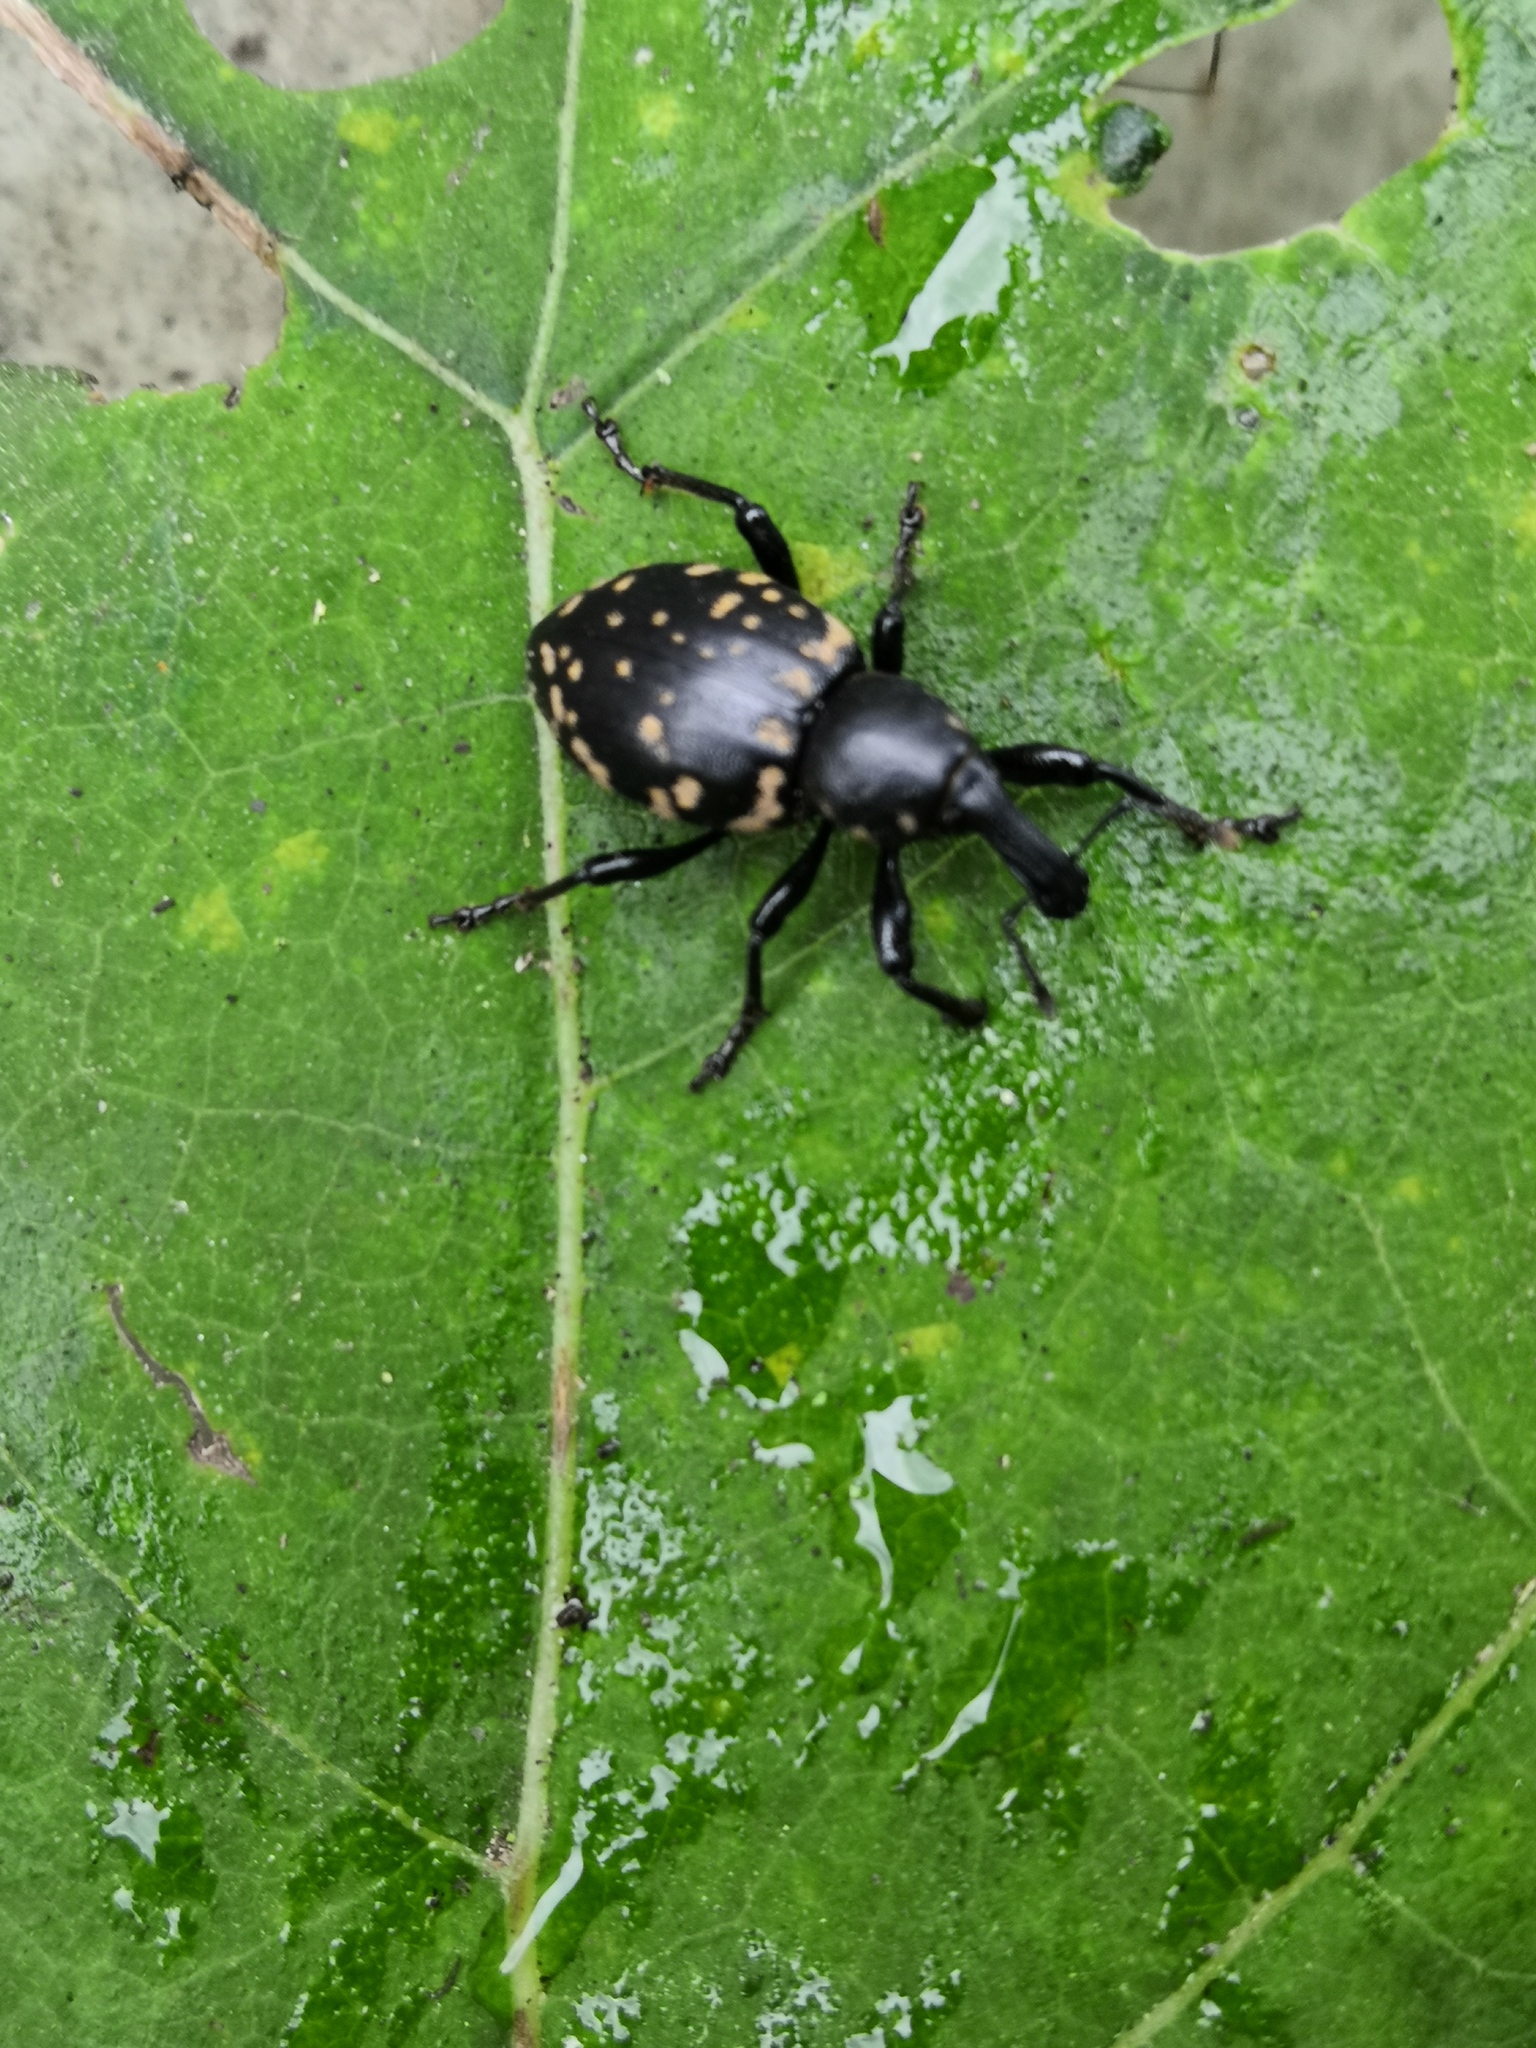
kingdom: Animalia
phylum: Arthropoda
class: Insecta
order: Coleoptera
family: Curculionidae
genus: Liparus
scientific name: Liparus glabrirostris
